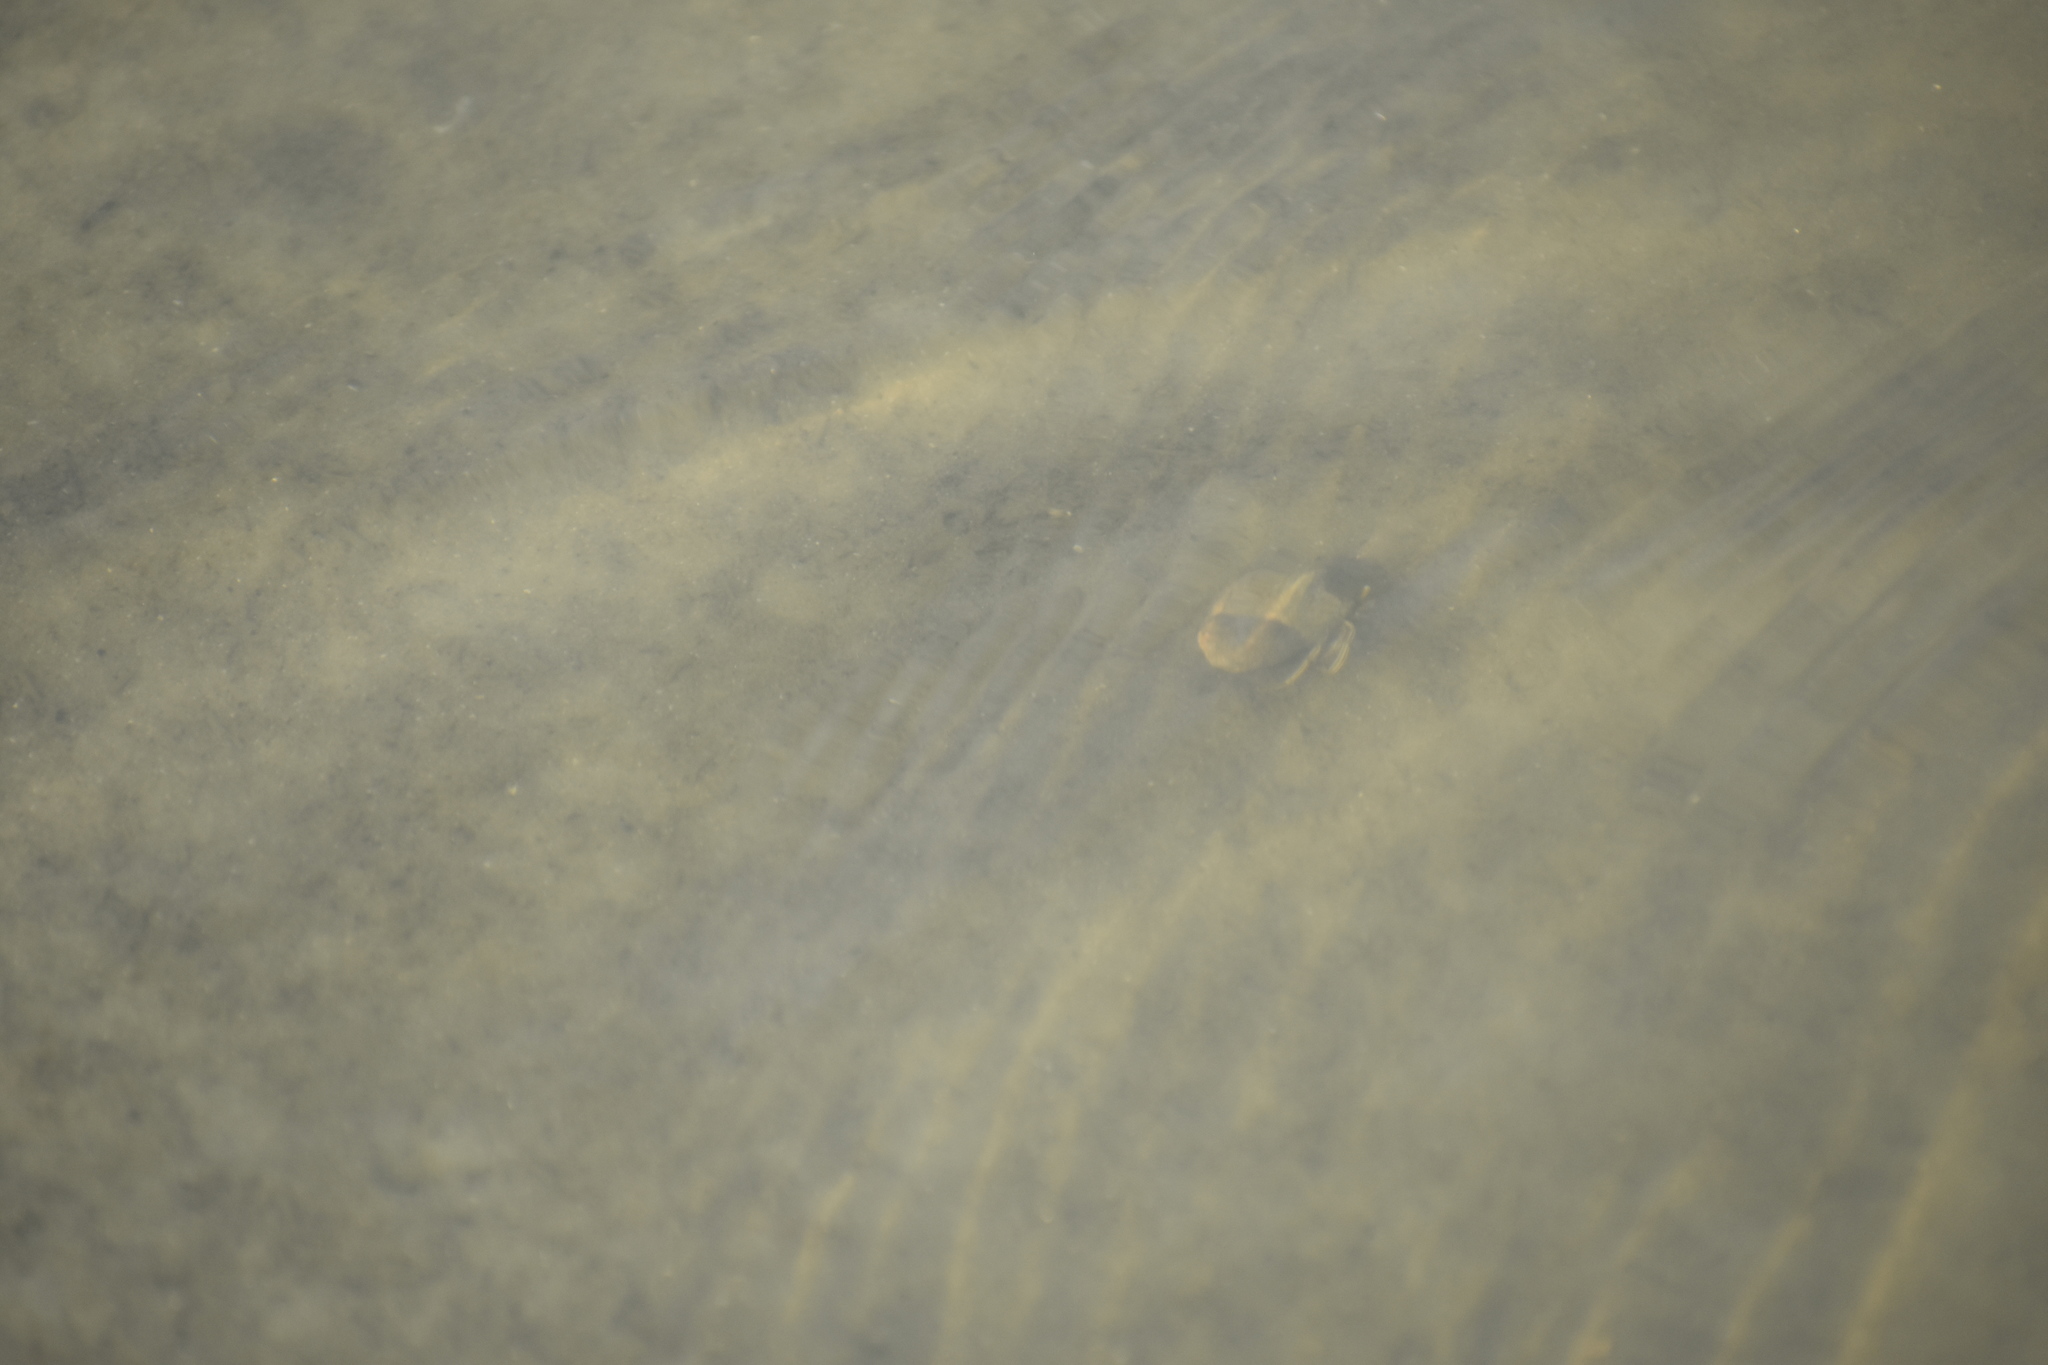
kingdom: Animalia
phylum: Arthropoda
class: Malacostraca
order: Decapoda
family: Diogenidae
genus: Clibanarius
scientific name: Clibanarius vittatus
